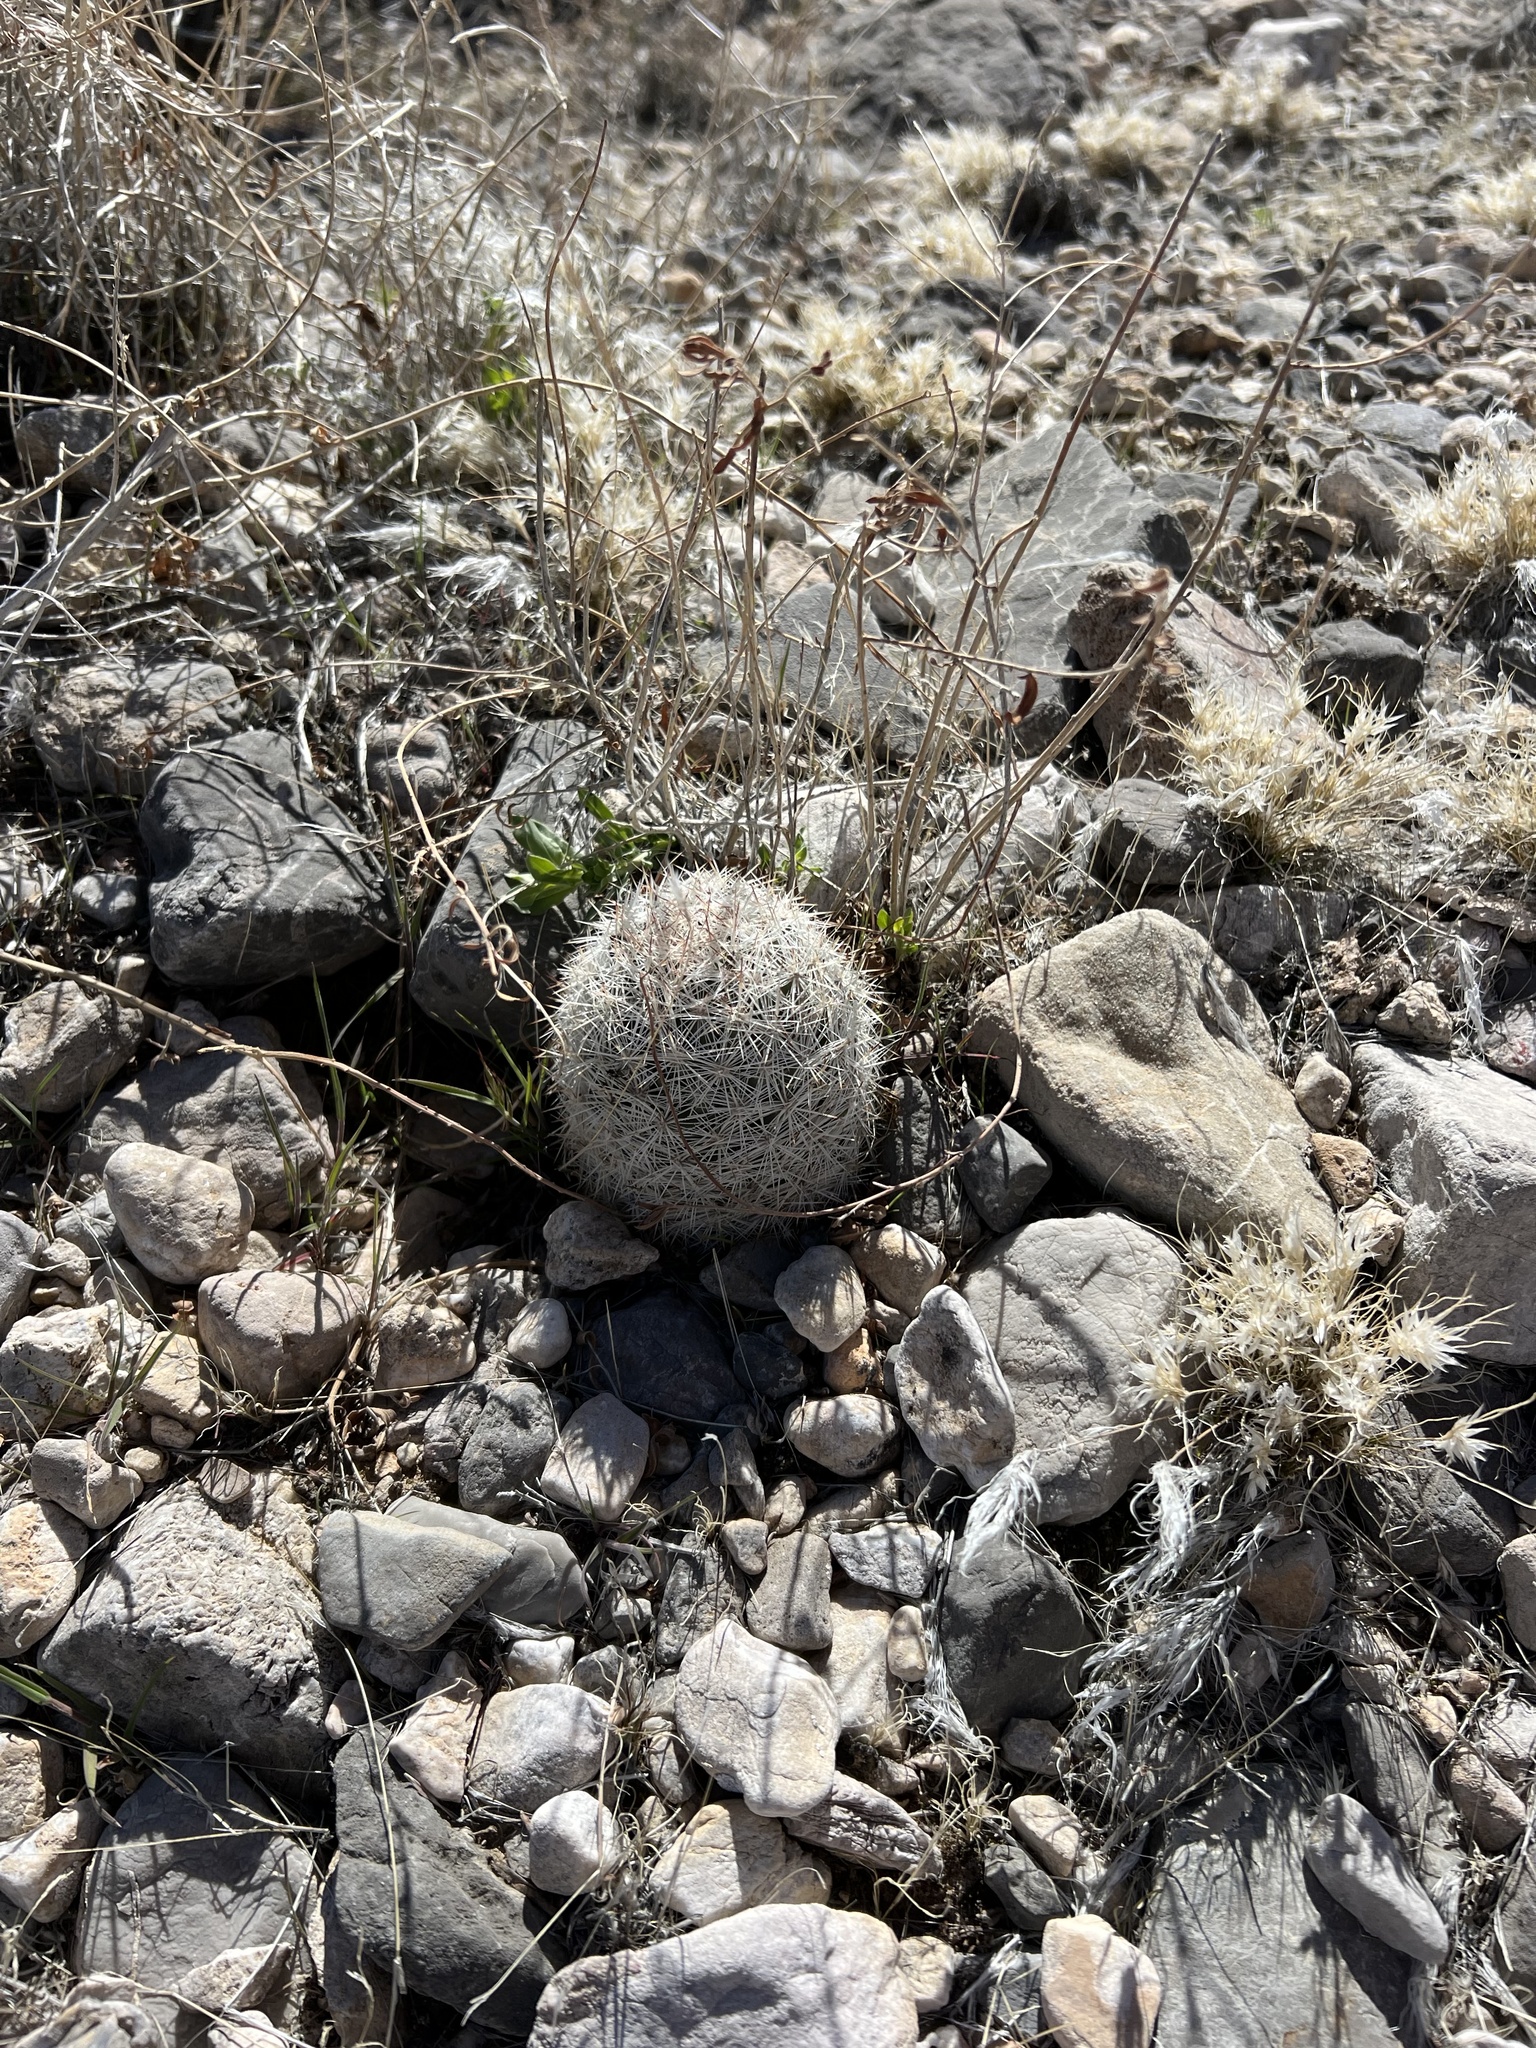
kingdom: Plantae
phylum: Tracheophyta
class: Magnoliopsida
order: Caryophyllales
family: Cactaceae
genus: Pelecyphora
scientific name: Pelecyphora dasyacantha
